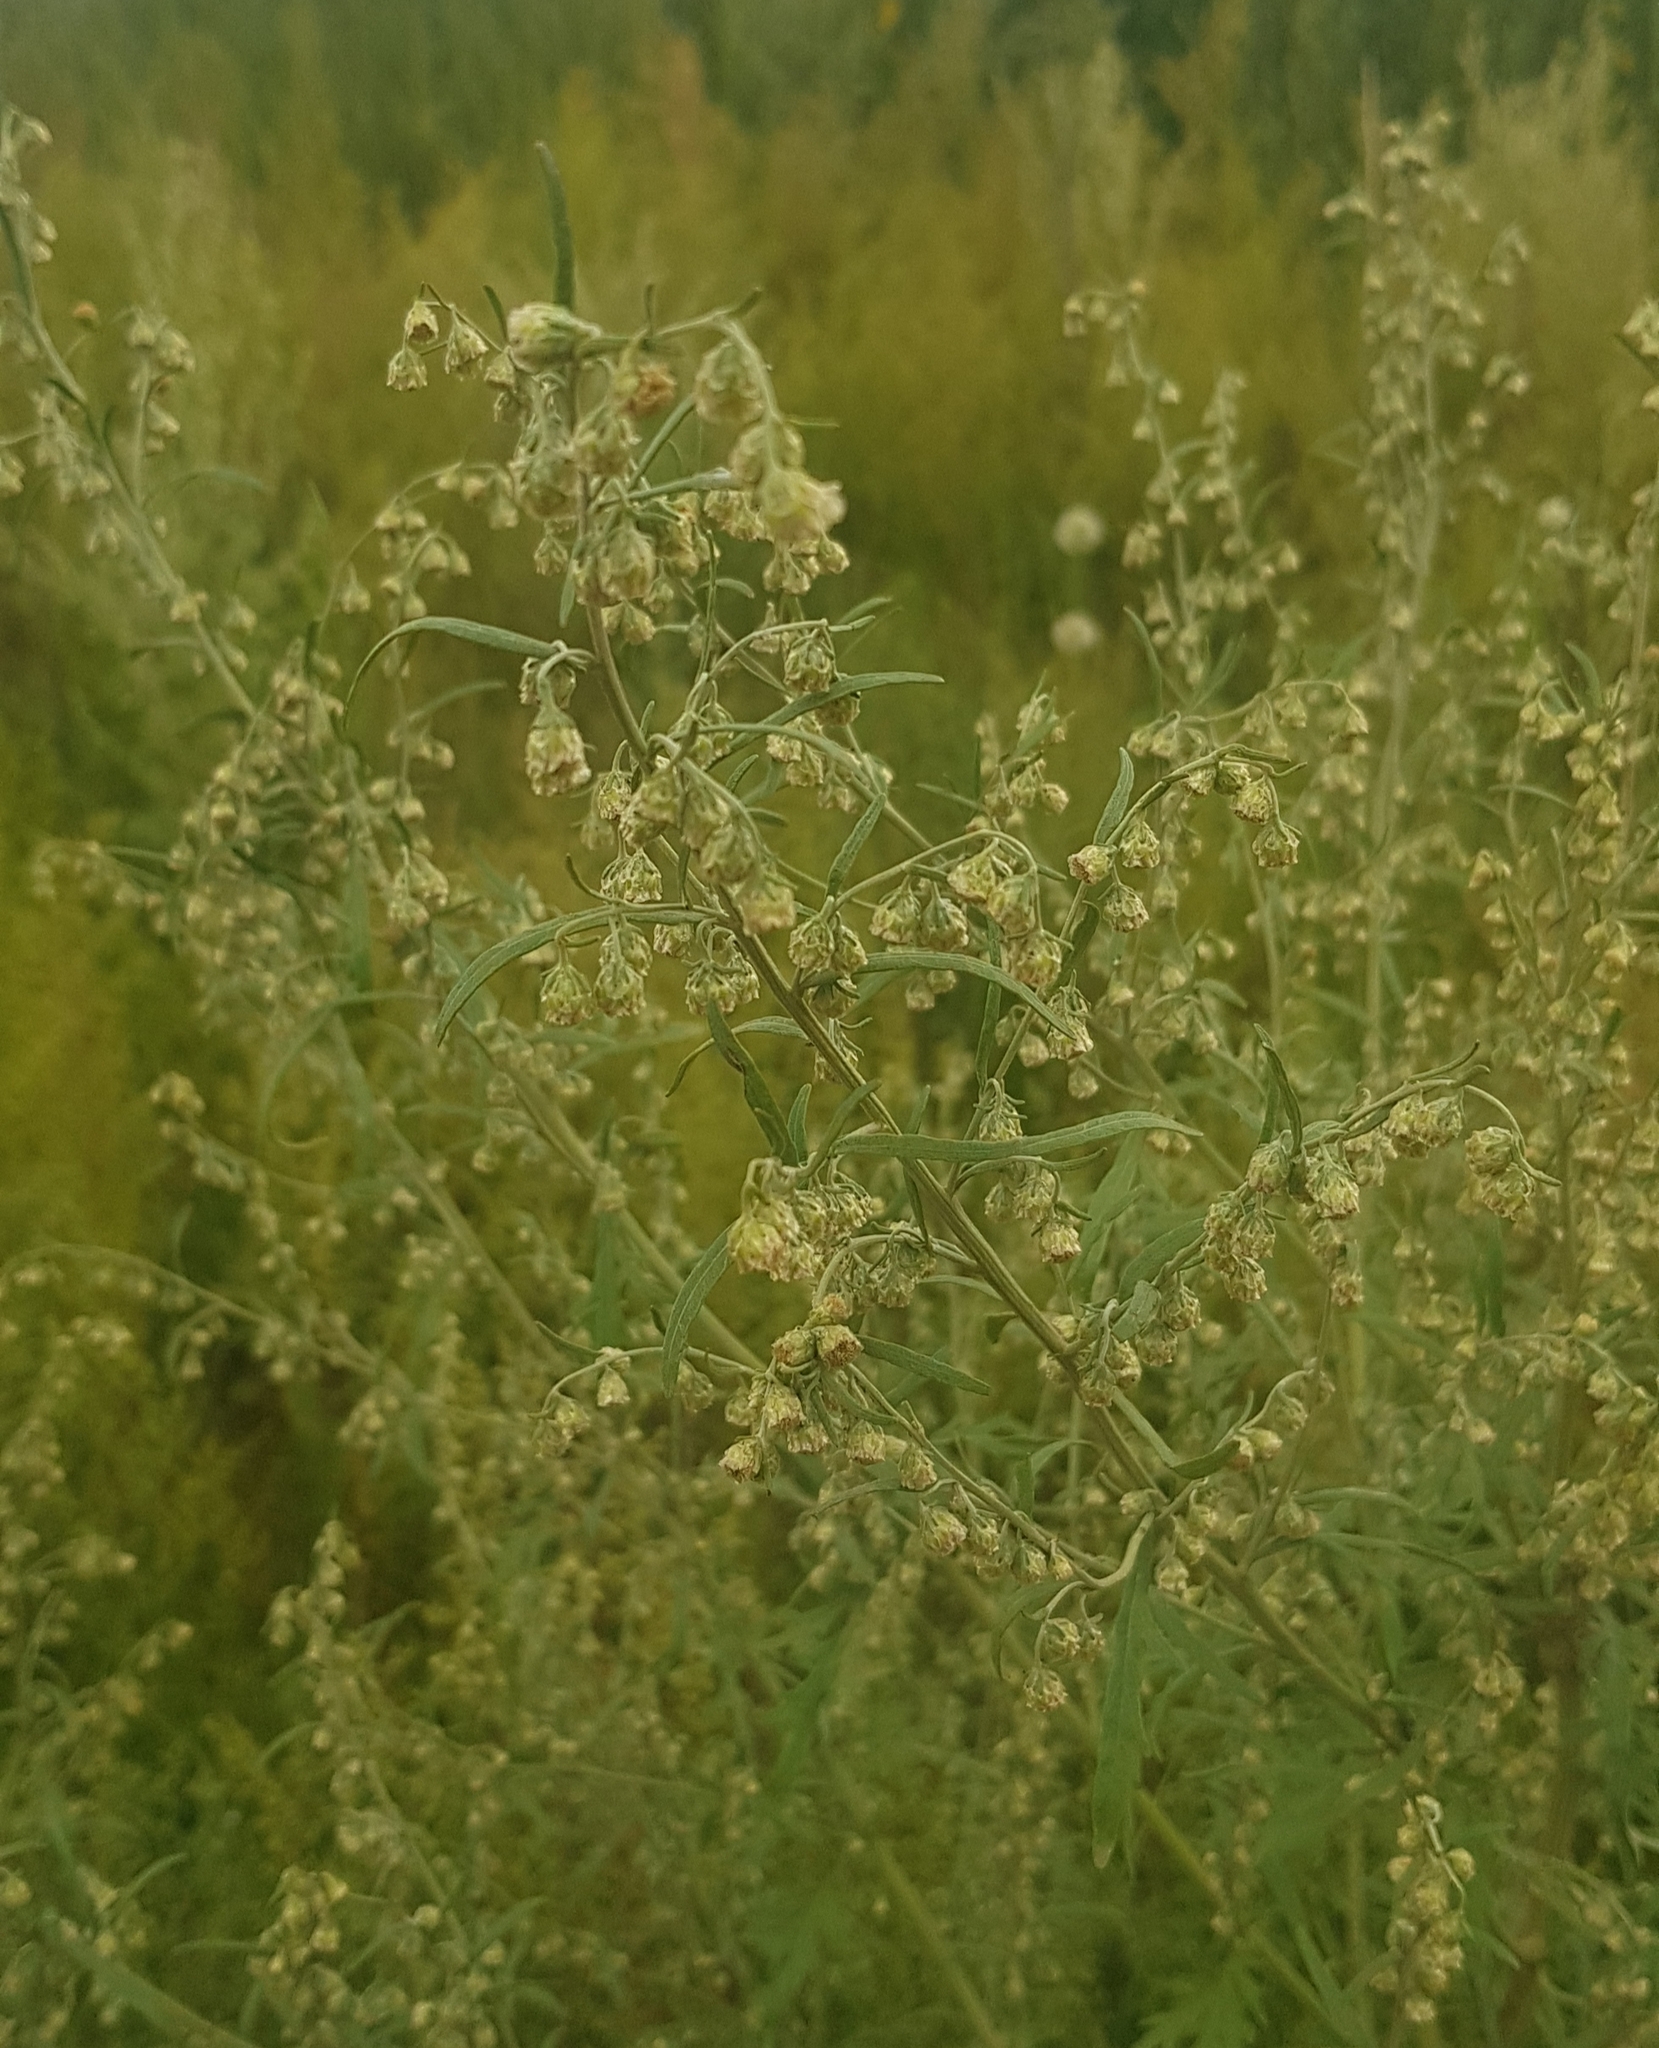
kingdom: Plantae
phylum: Tracheophyta
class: Magnoliopsida
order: Asterales
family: Asteraceae
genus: Artemisia
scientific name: Artemisia gmelinii
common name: Gmelin's wormwood
